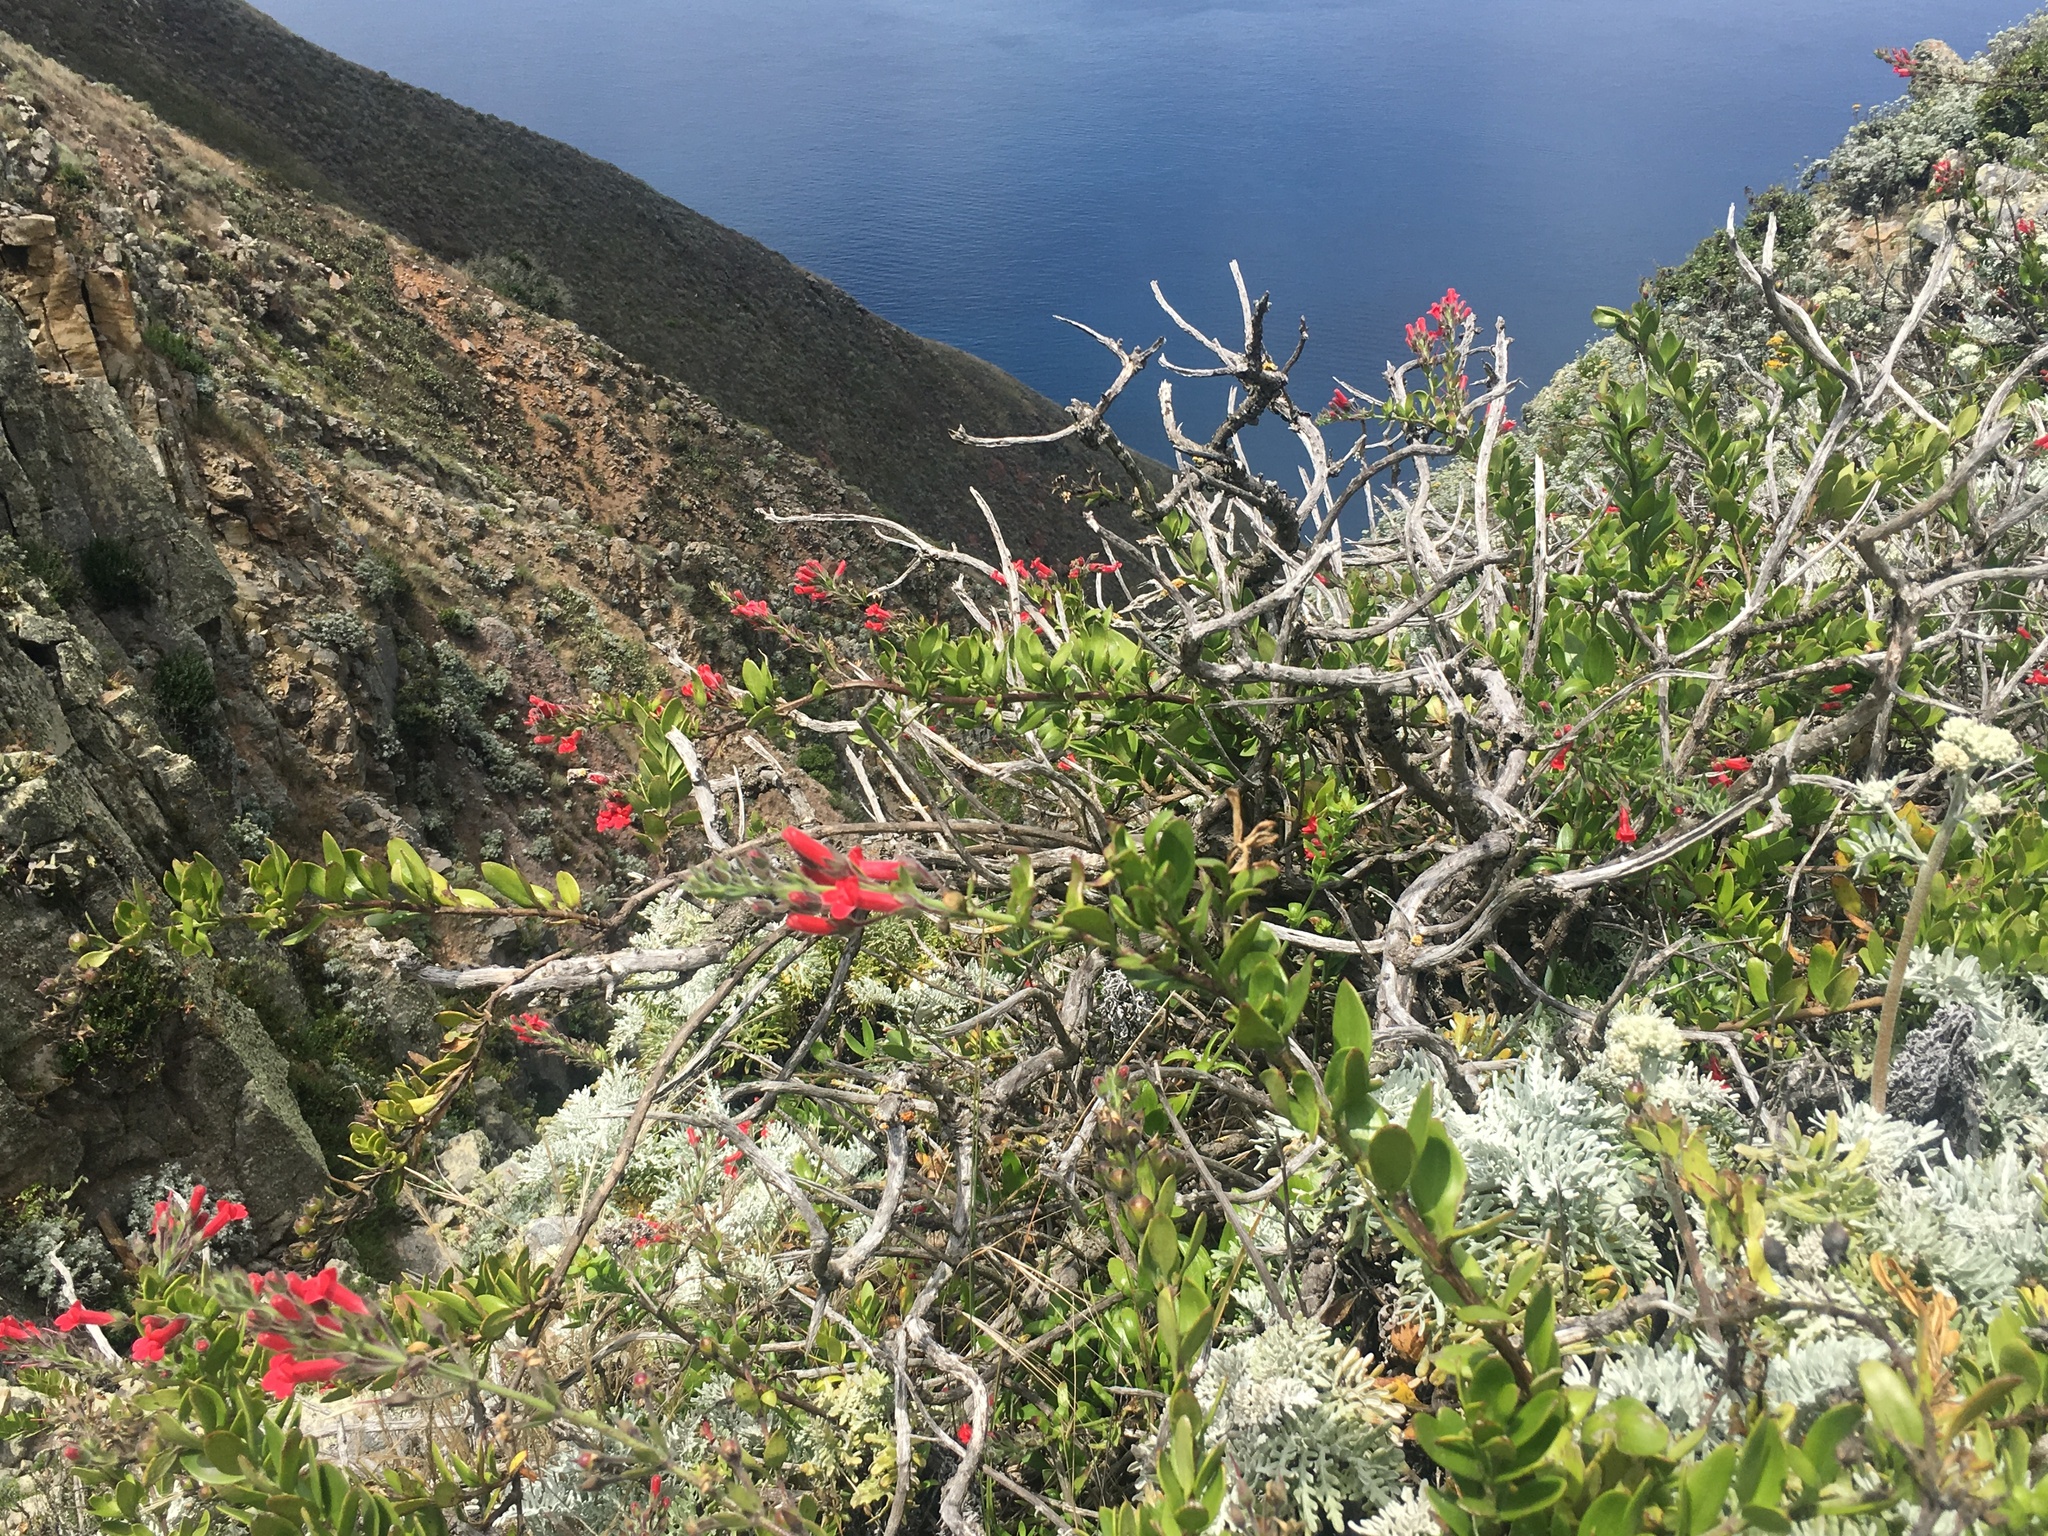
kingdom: Plantae
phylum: Tracheophyta
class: Magnoliopsida
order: Lamiales
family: Plantaginaceae
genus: Gambelia
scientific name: Gambelia speciosa
